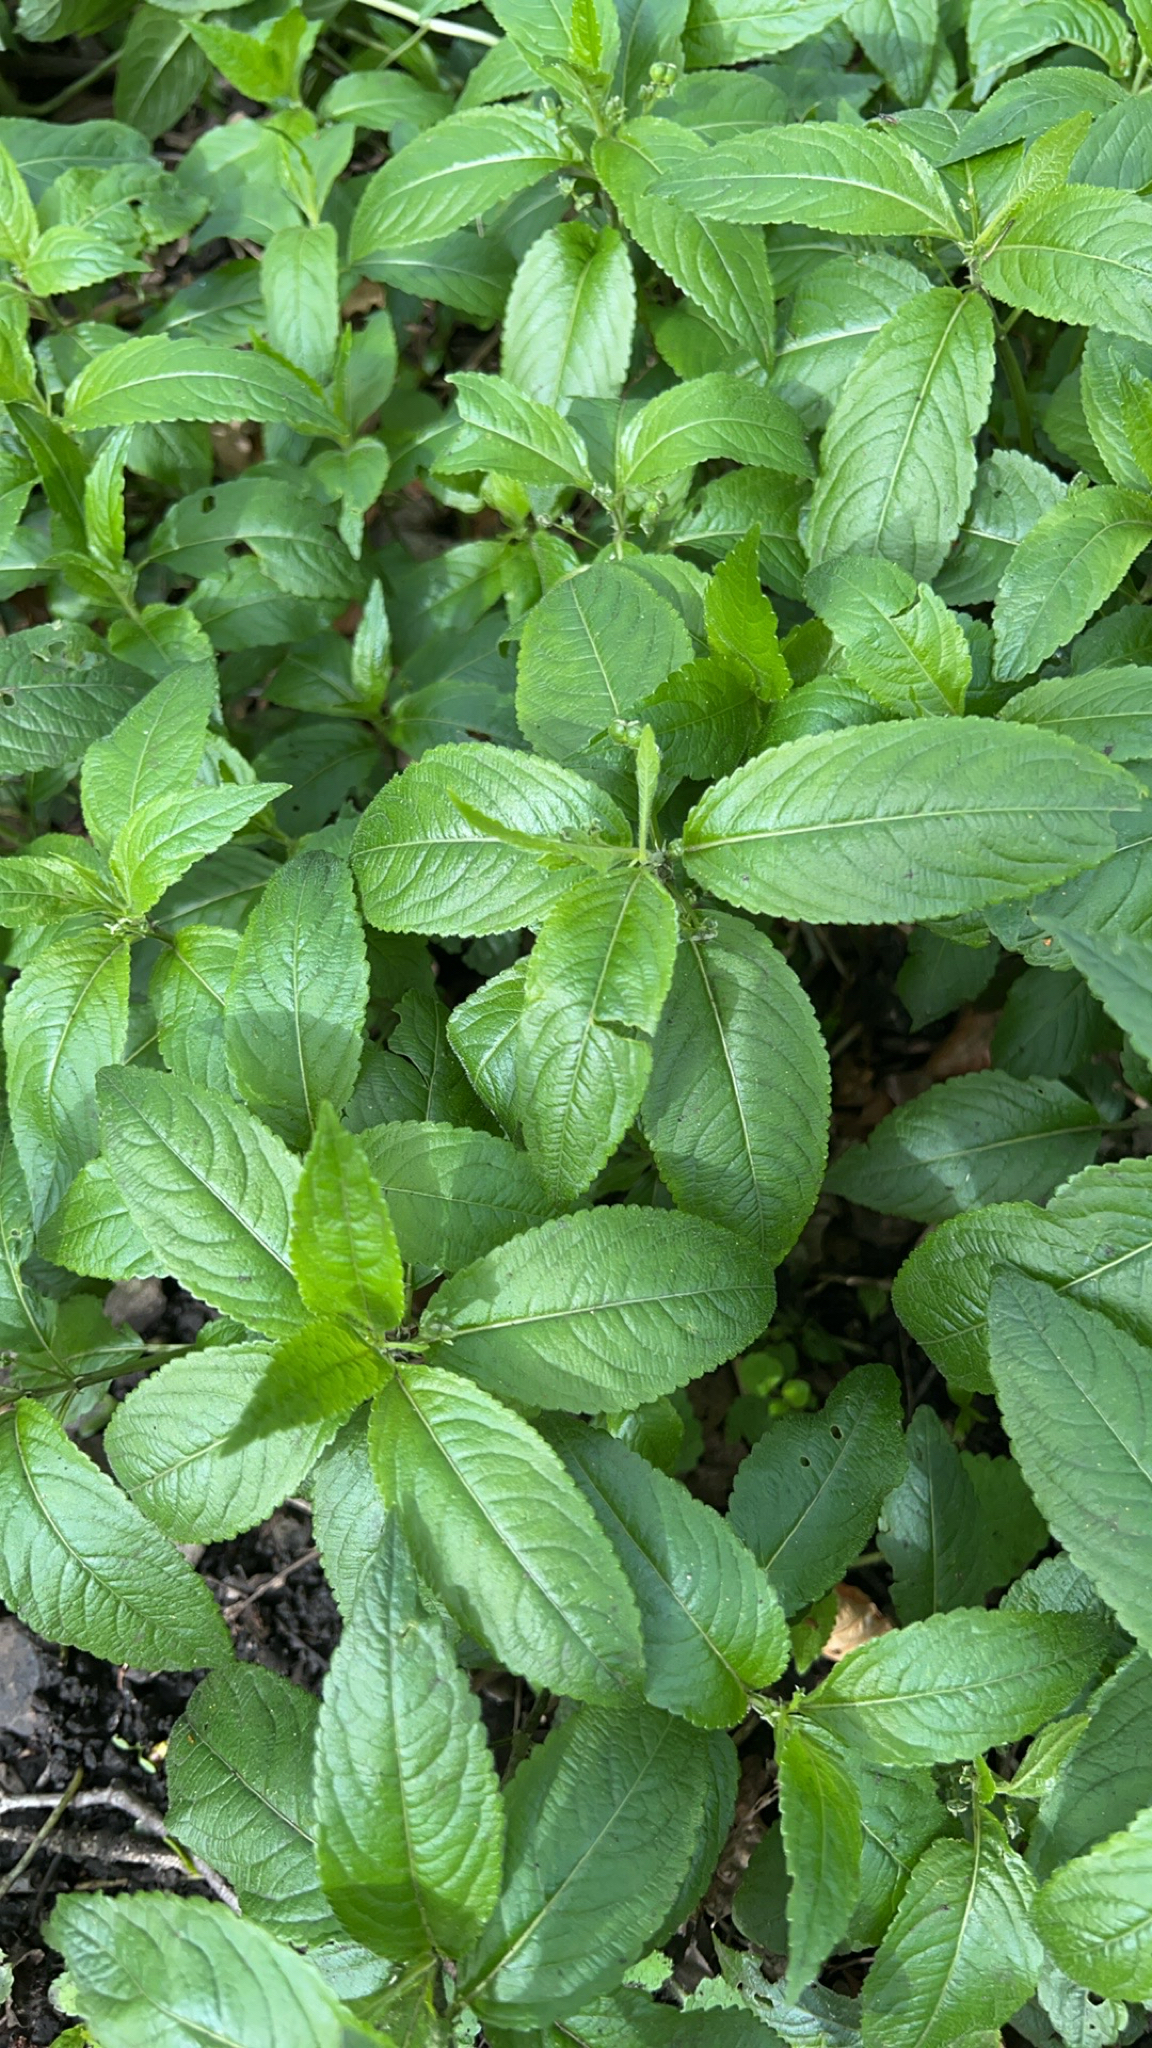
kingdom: Plantae
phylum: Tracheophyta
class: Magnoliopsida
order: Malpighiales
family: Euphorbiaceae
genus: Mercurialis
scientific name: Mercurialis perennis
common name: Dog mercury
